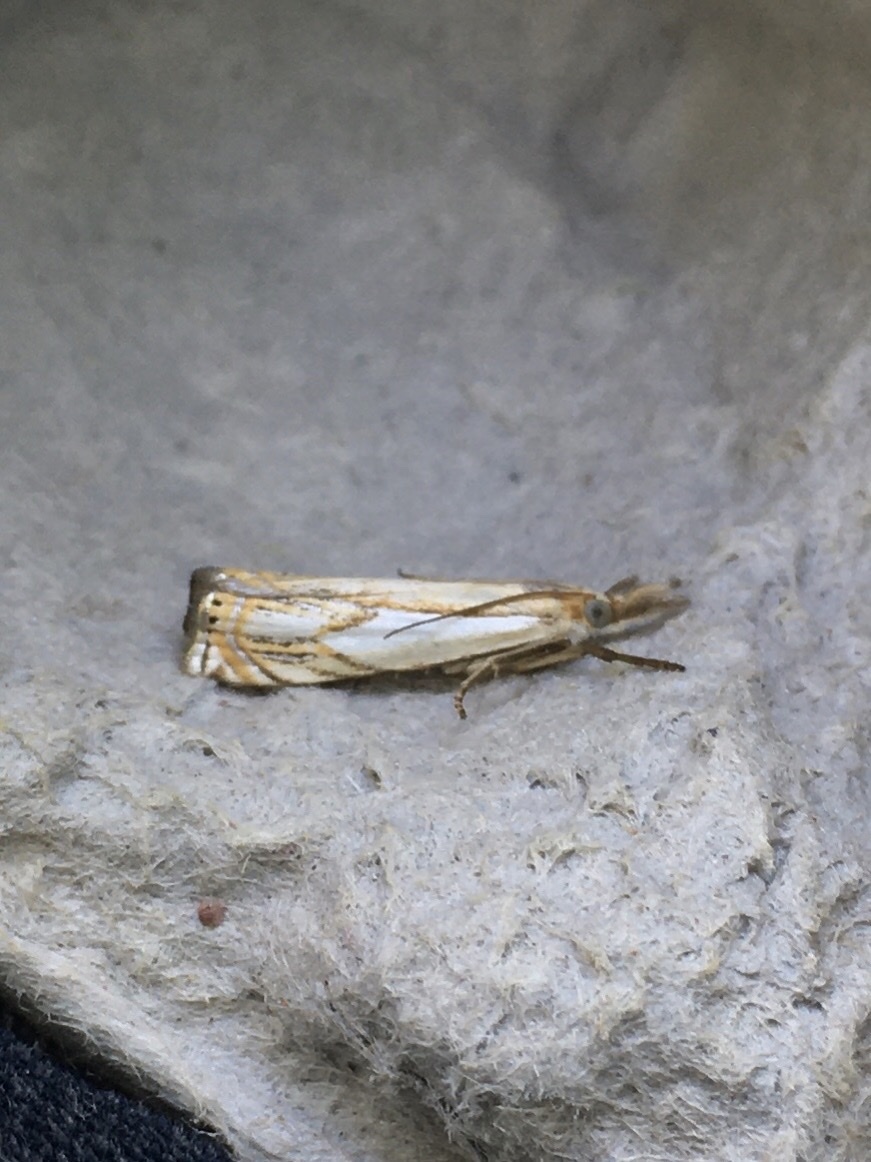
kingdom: Animalia
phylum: Arthropoda
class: Insecta
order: Lepidoptera
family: Crambidae
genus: Crambus
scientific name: Crambus agitatellus
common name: Double-banded grass-veneer
